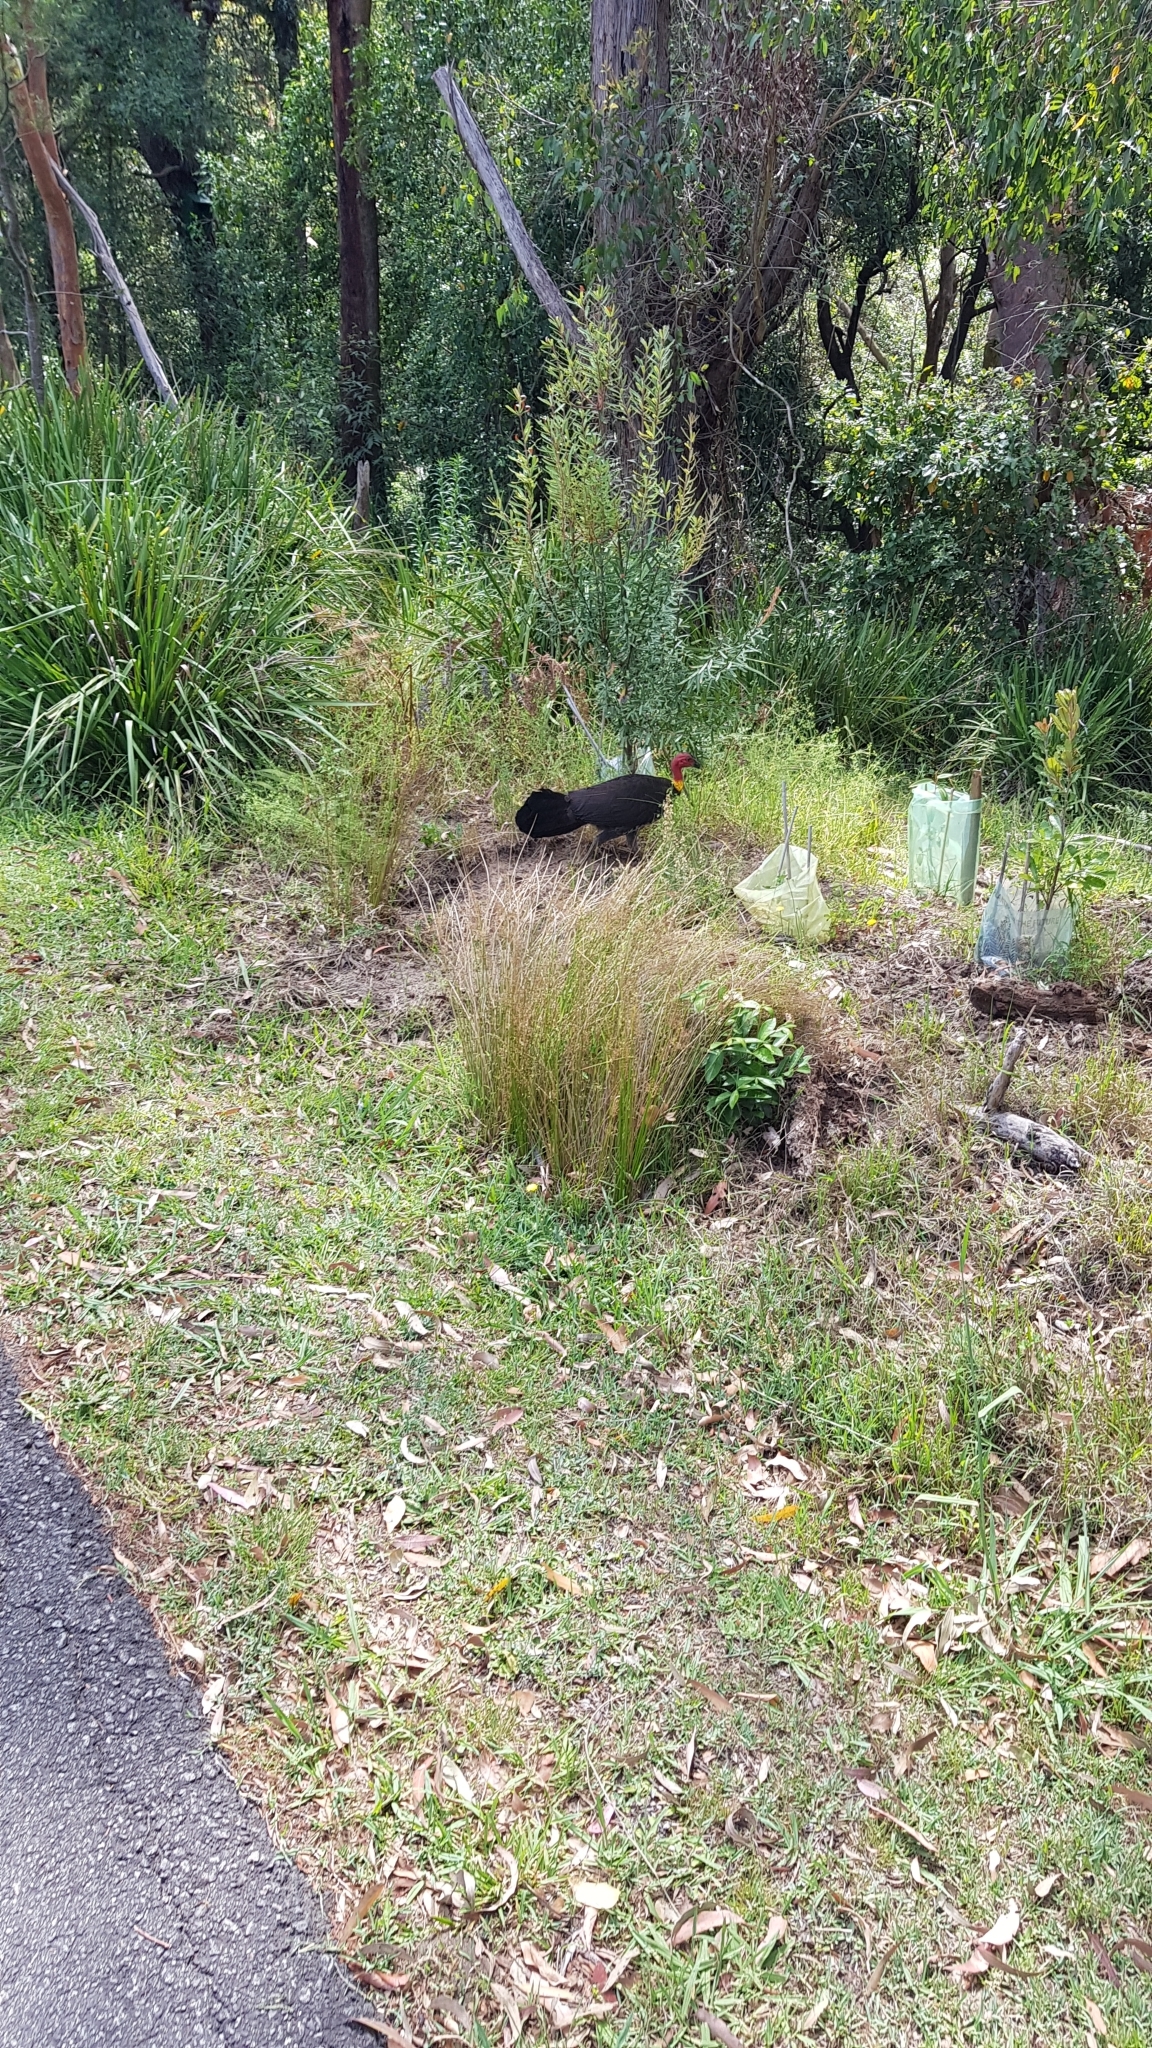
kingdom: Animalia
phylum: Chordata
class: Aves
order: Galliformes
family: Megapodiidae
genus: Alectura
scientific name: Alectura lathami
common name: Australian brushturkey
